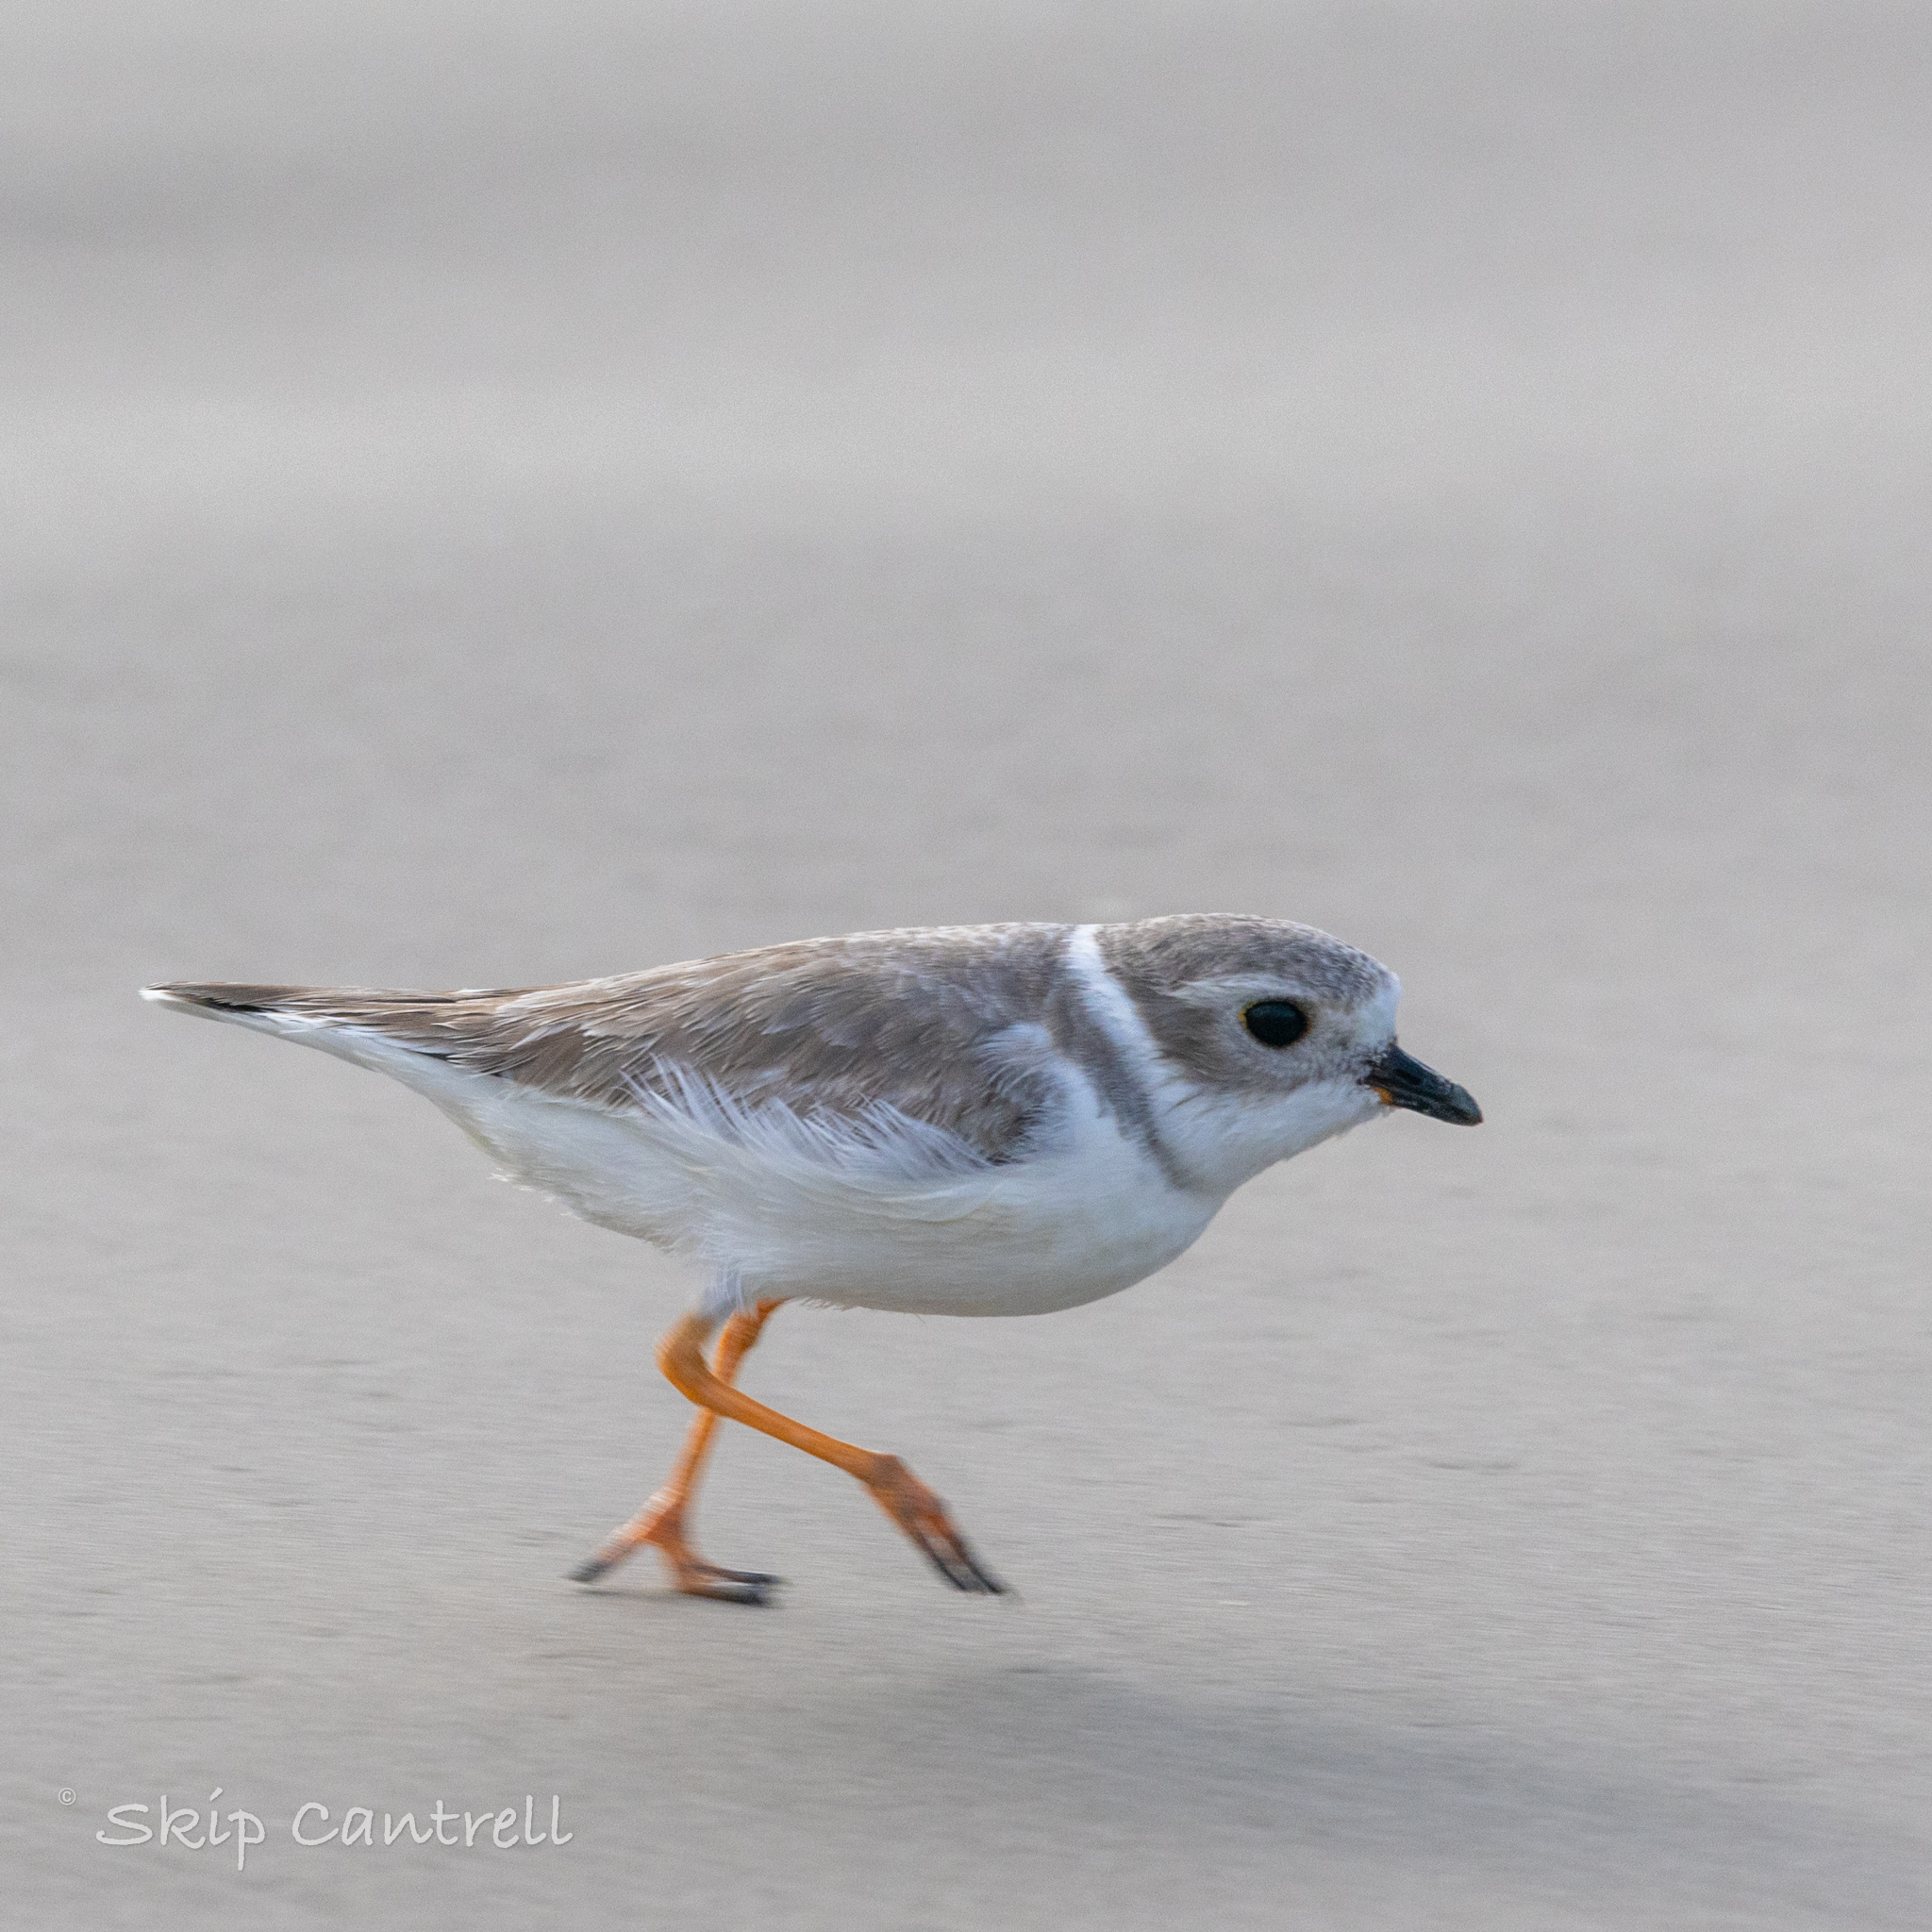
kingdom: Animalia
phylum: Chordata
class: Aves
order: Charadriiformes
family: Charadriidae
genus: Charadrius
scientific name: Charadrius melodus
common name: Piping plover
